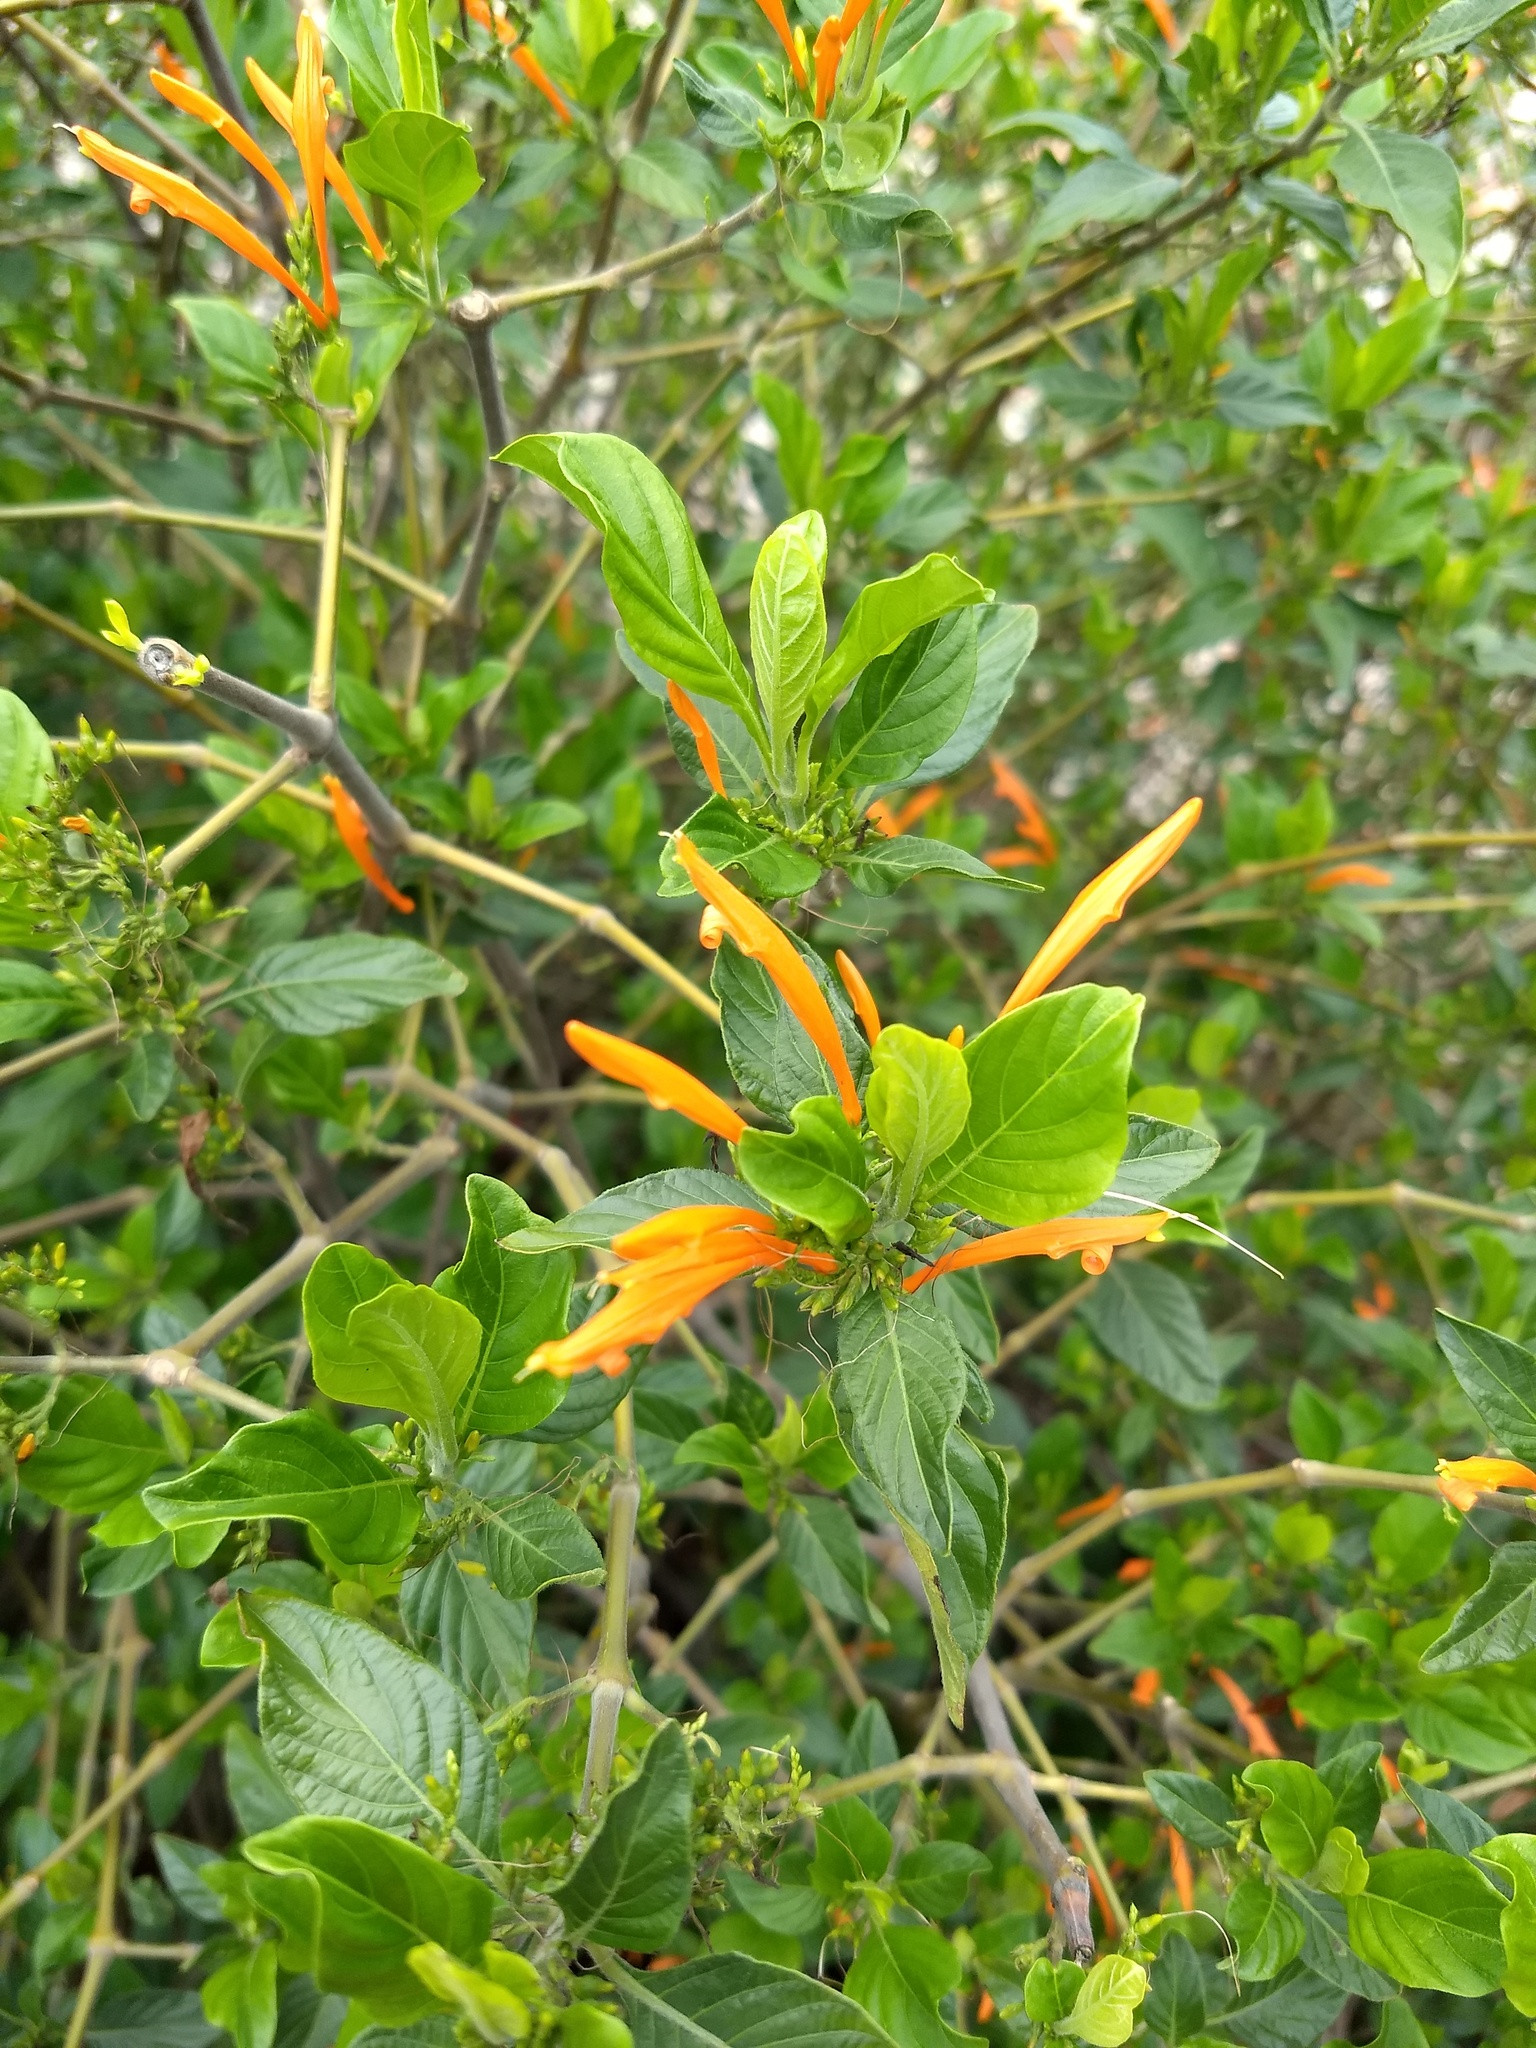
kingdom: Plantae
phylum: Tracheophyta
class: Magnoliopsida
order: Lamiales
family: Acanthaceae
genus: Justicia
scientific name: Justicia spicigera
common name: Mohintli
